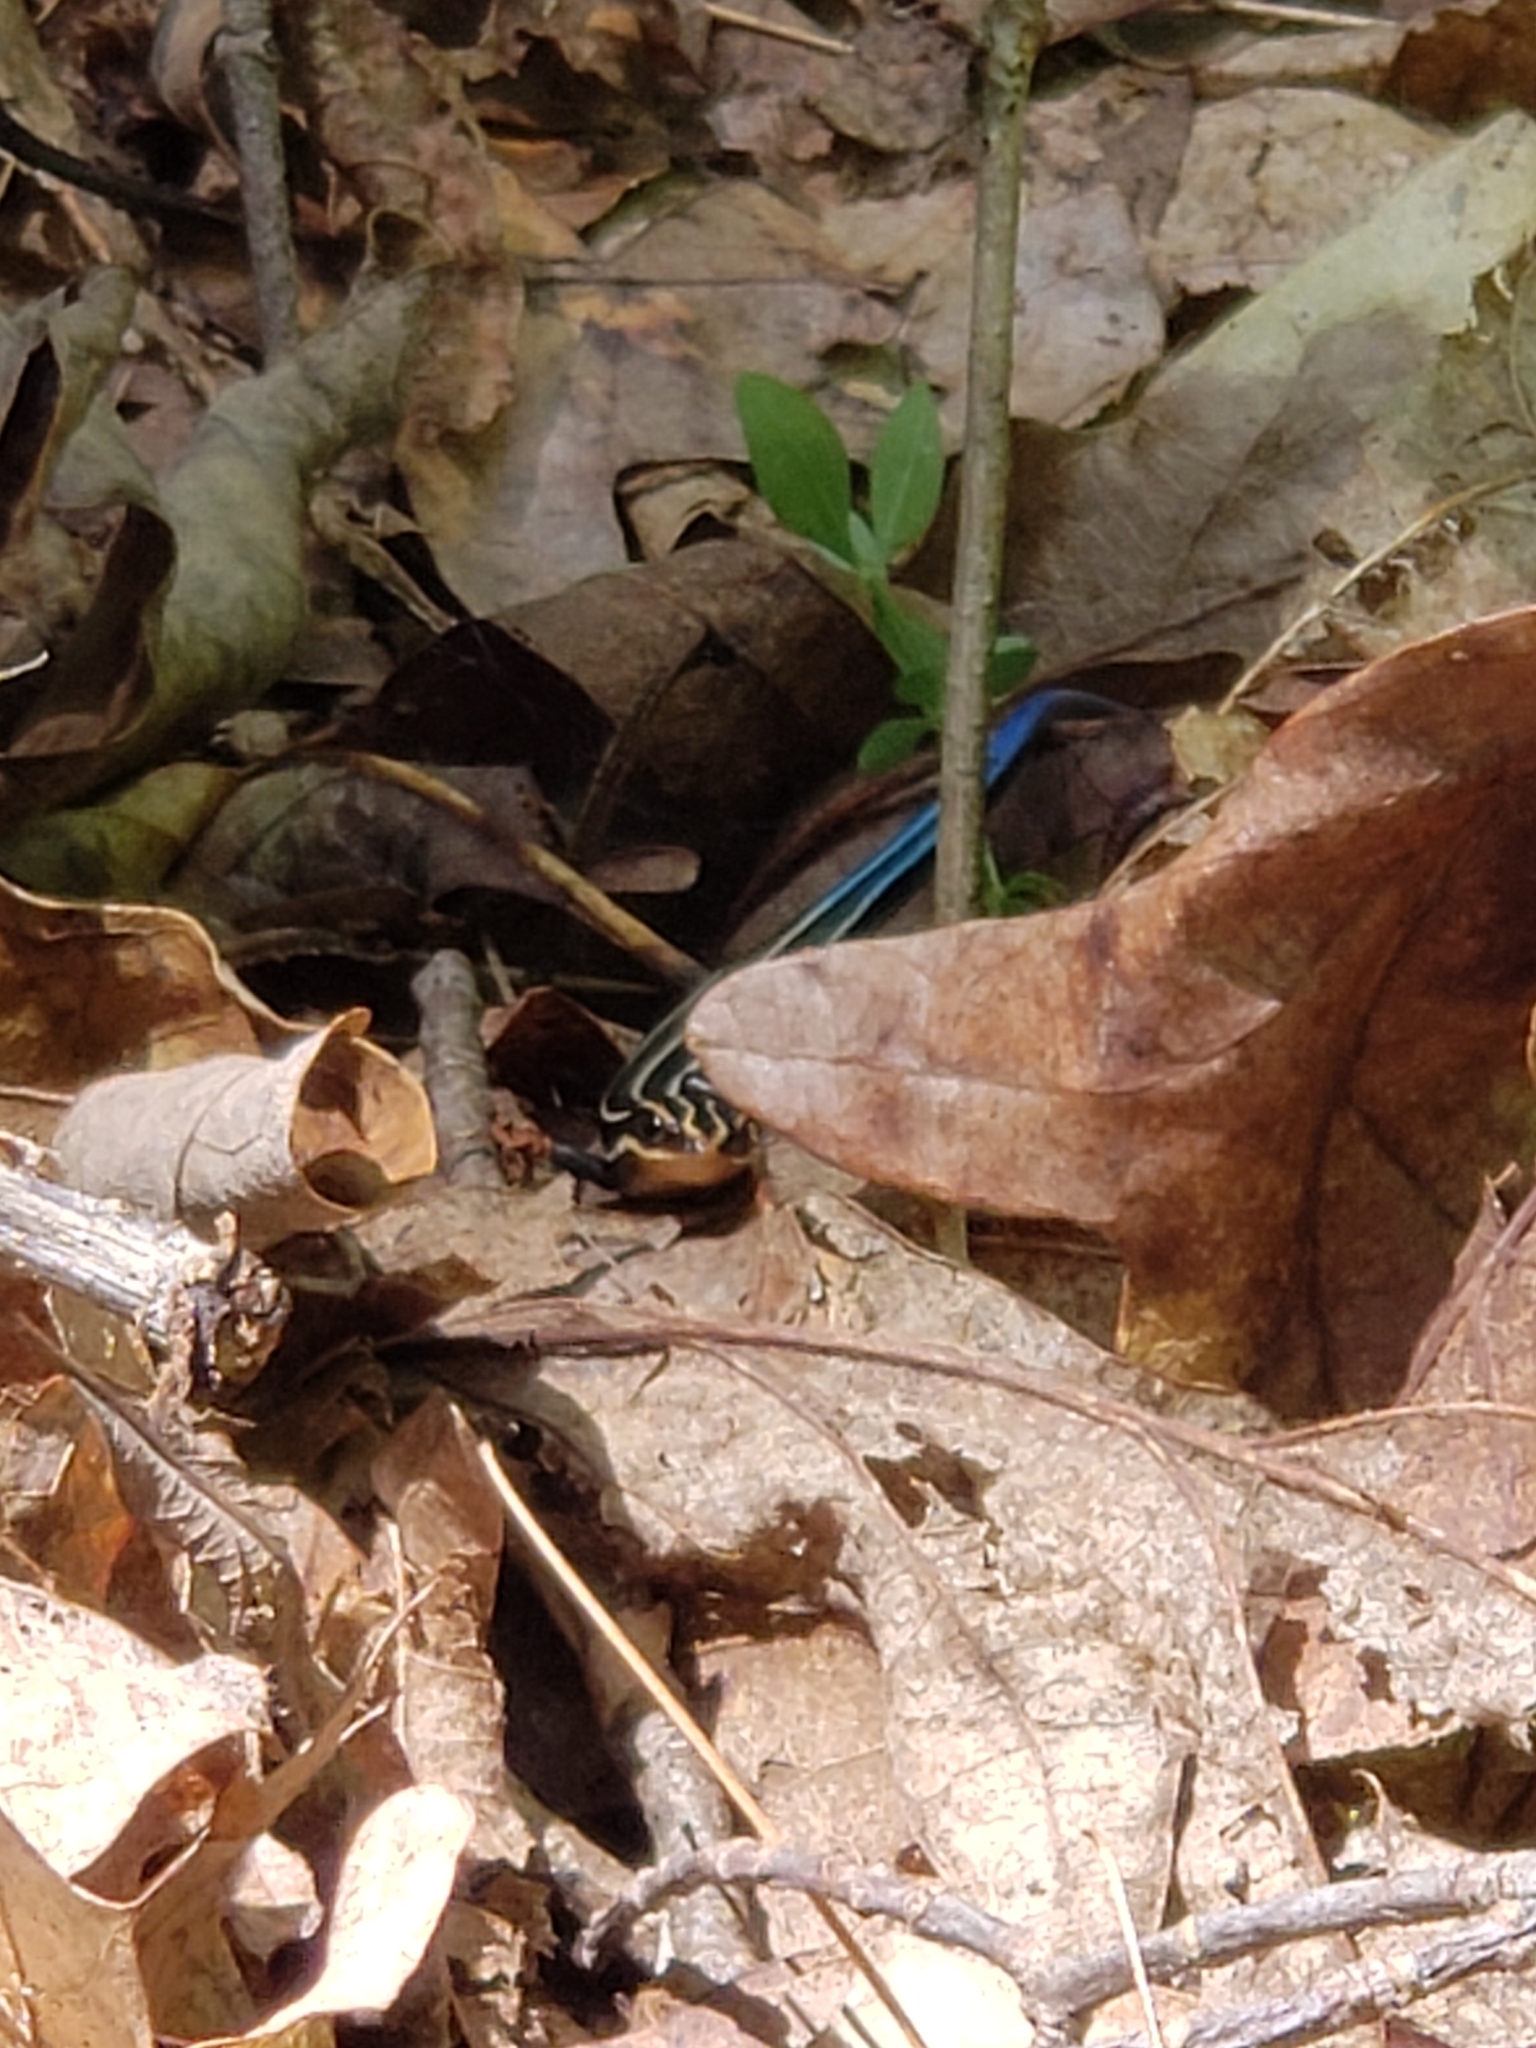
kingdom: Animalia
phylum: Chordata
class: Squamata
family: Scincidae
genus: Plestiodon
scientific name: Plestiodon fasciatus
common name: Five-lined skink
